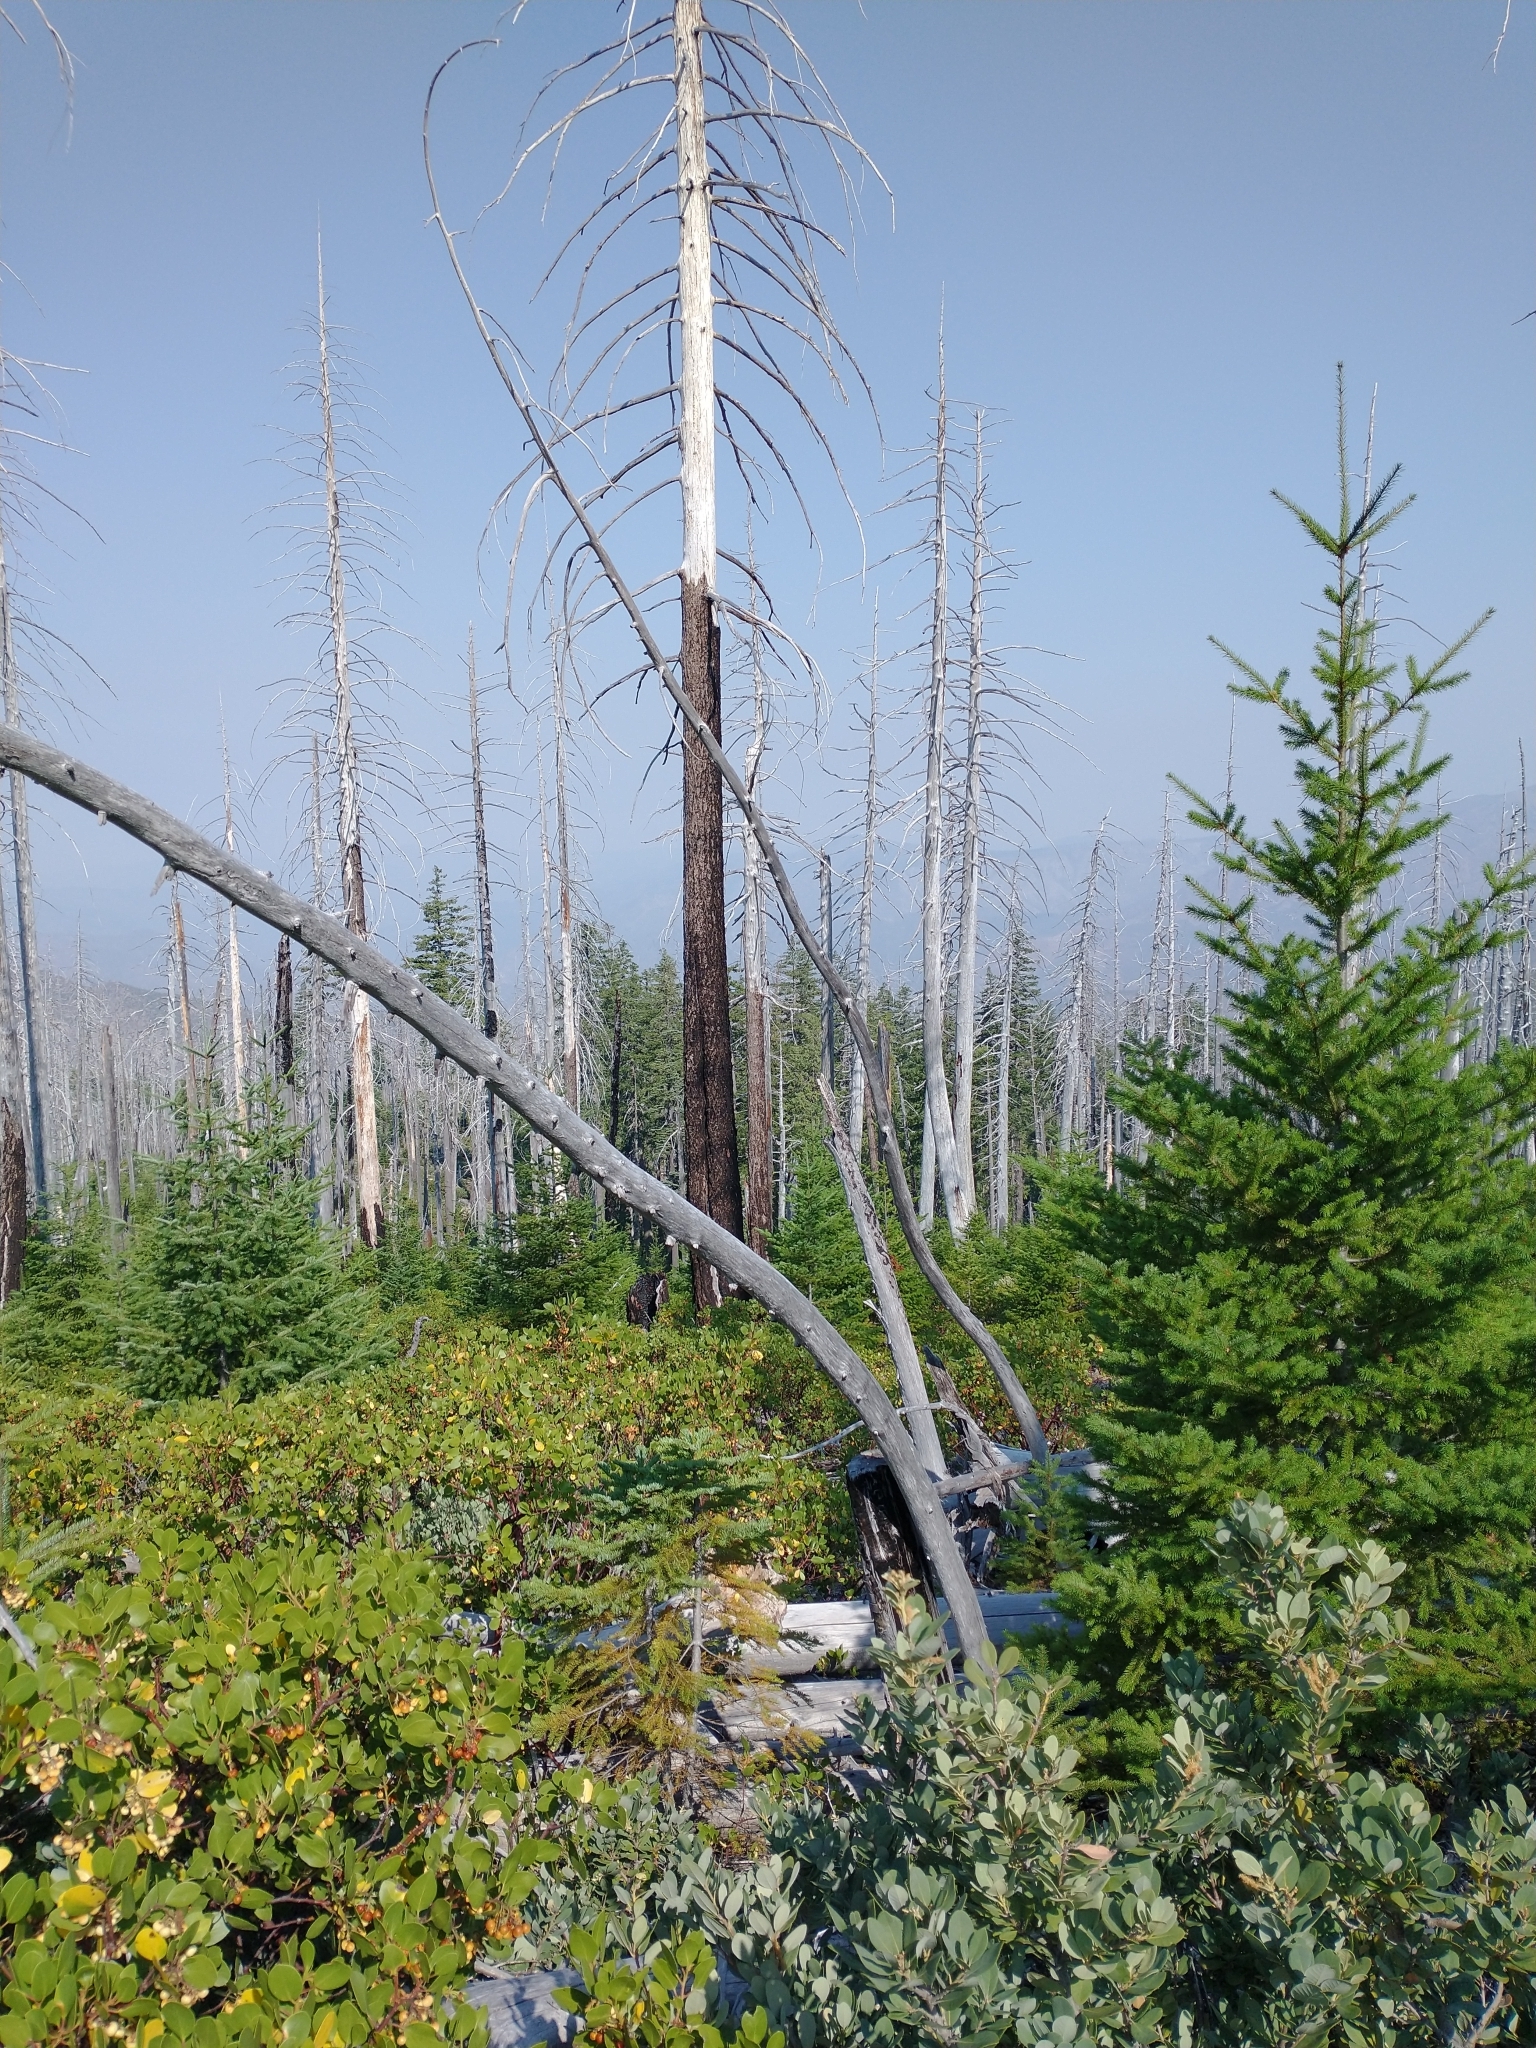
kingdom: Plantae
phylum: Tracheophyta
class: Pinopsida
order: Pinales
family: Pinaceae
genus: Pseudotsuga
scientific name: Pseudotsuga menziesii
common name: Douglas fir
